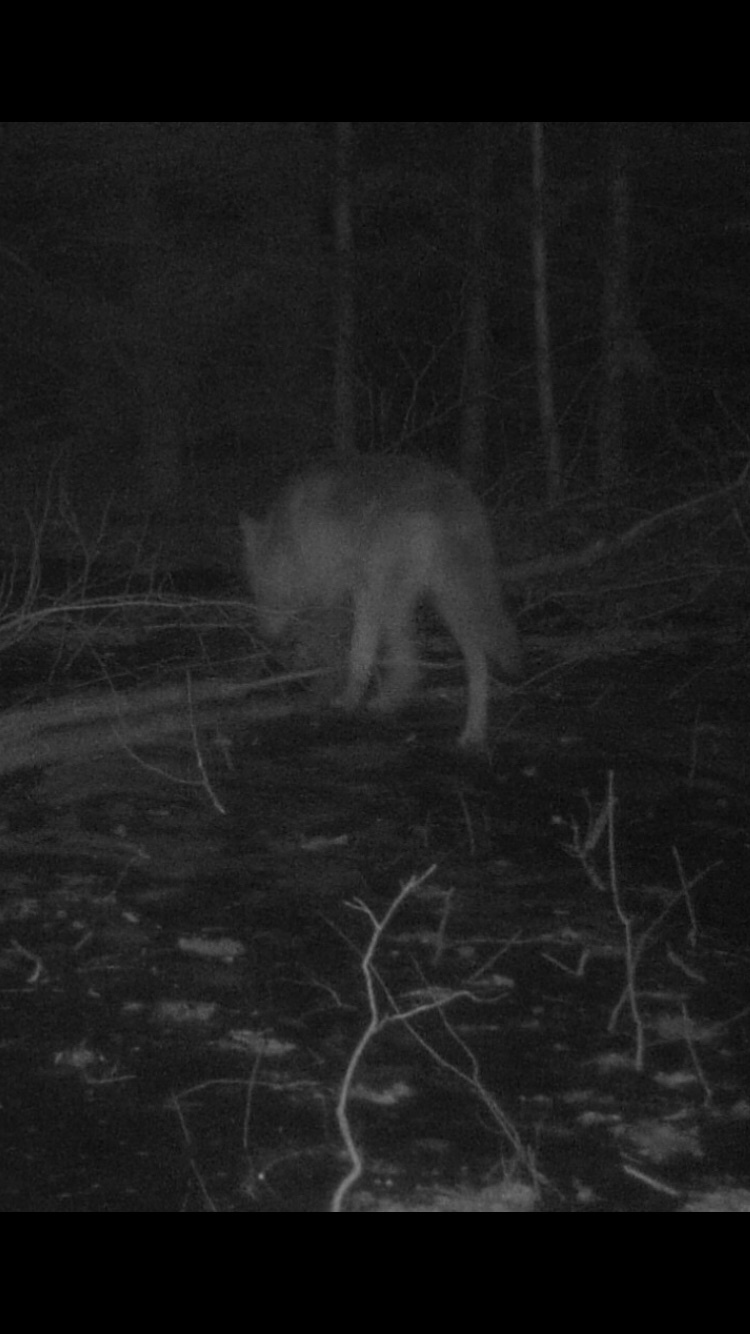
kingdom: Animalia
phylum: Chordata
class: Mammalia
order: Carnivora
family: Canidae
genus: Canis
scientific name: Canis latrans
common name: Coyote
